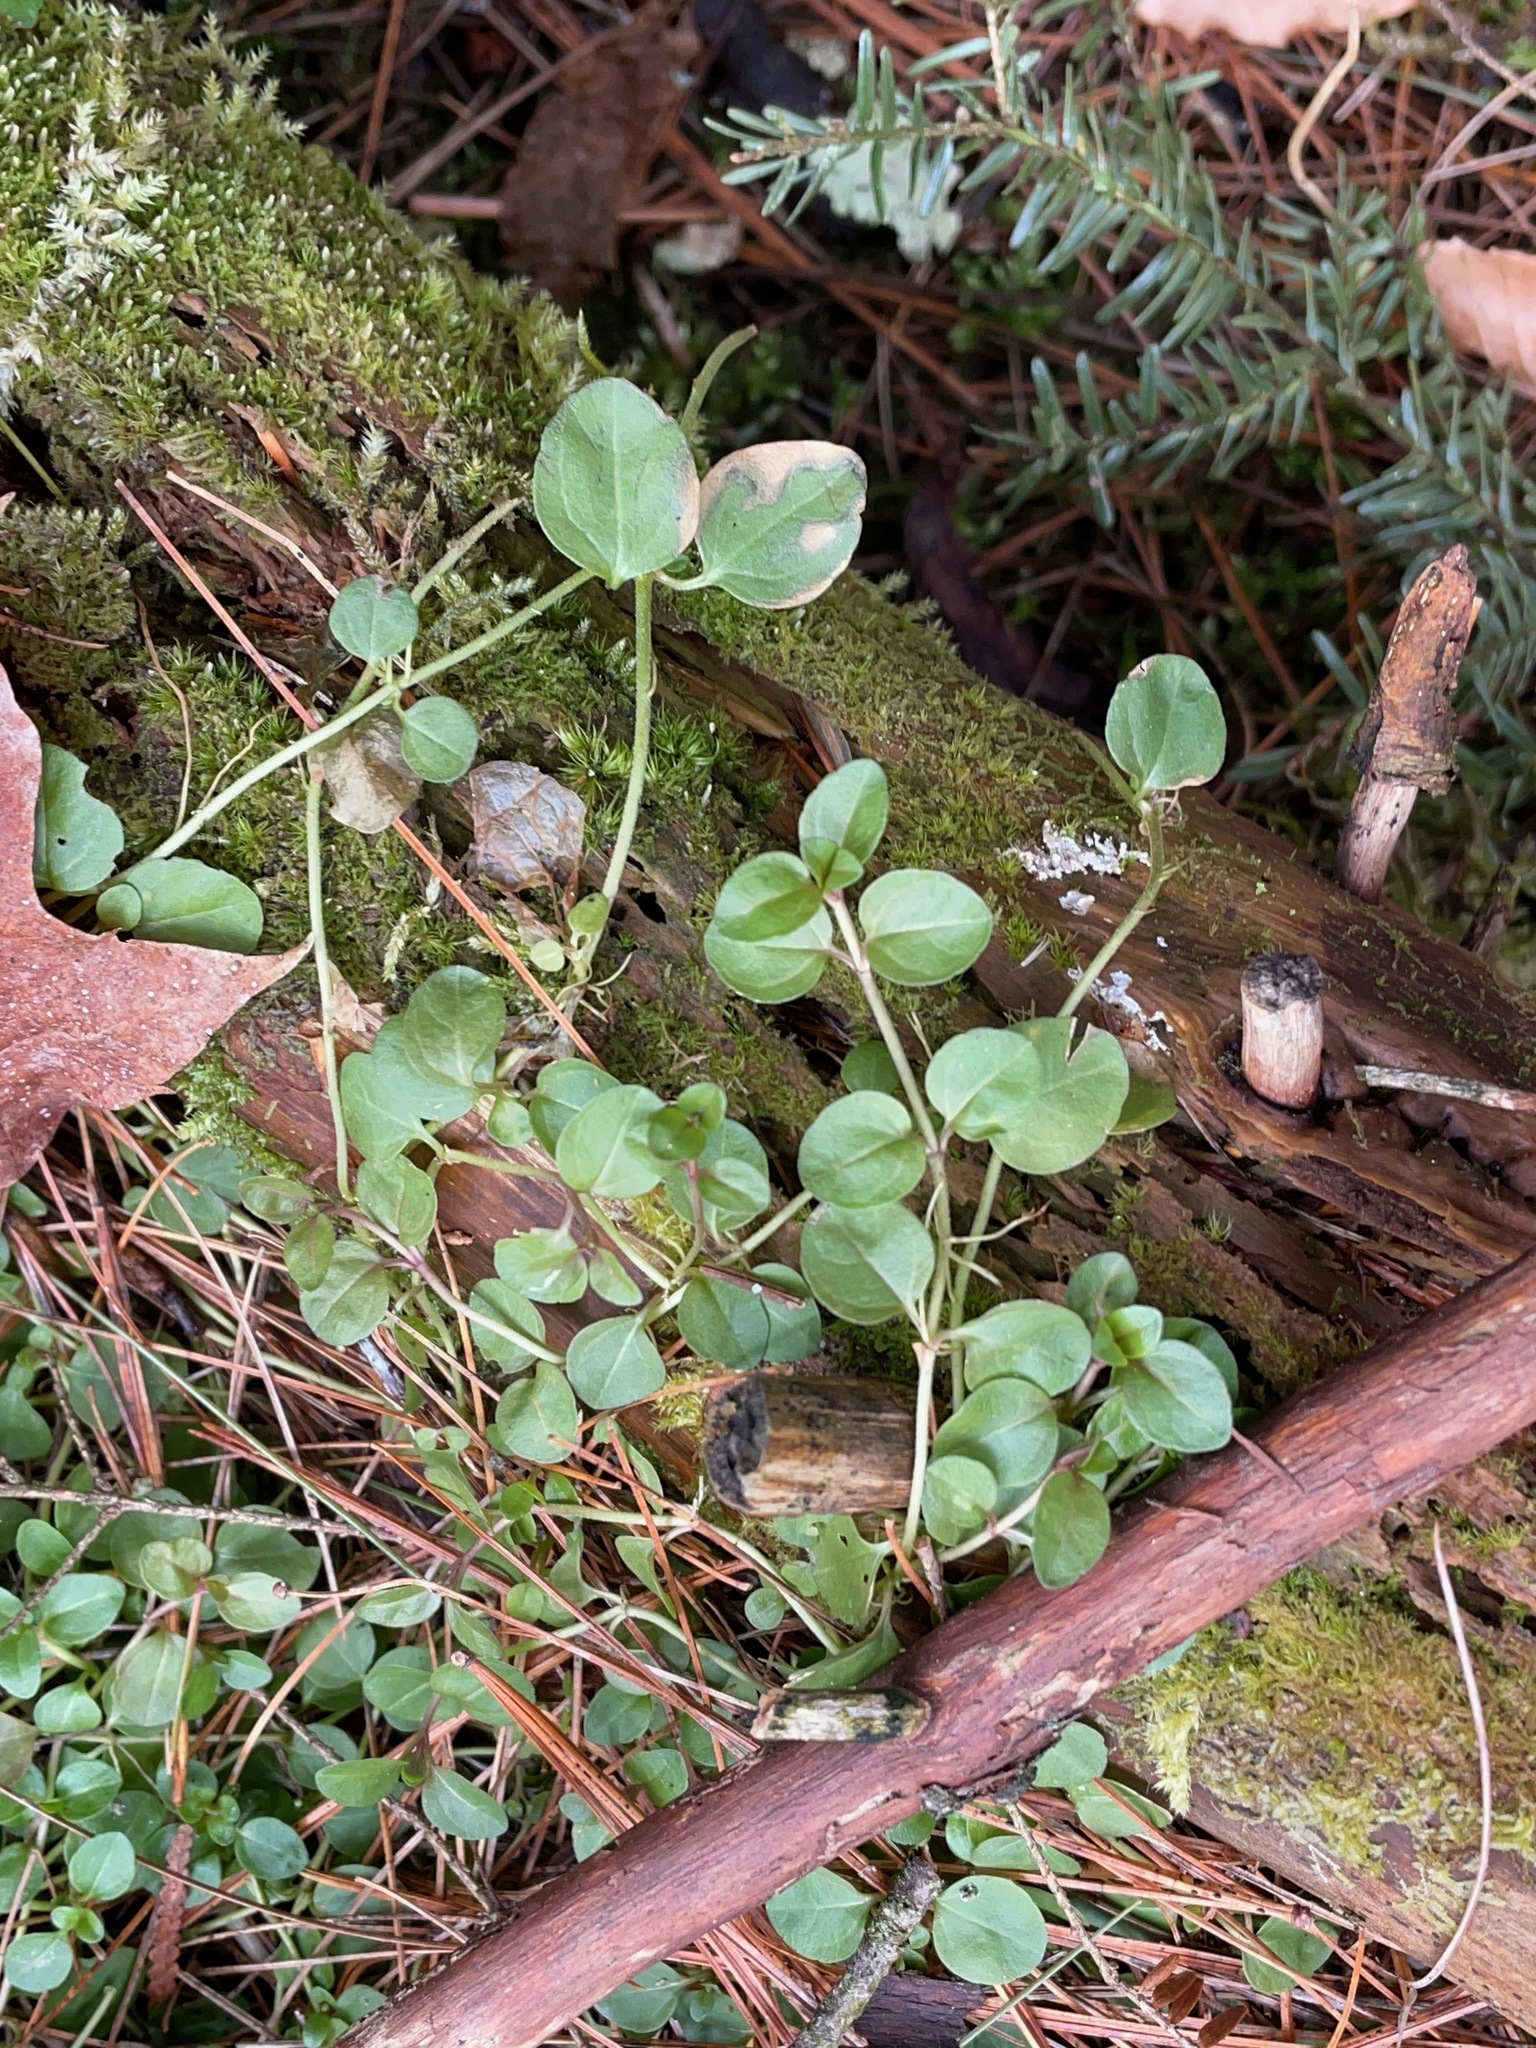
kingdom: Plantae
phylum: Tracheophyta
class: Magnoliopsida
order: Lamiales
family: Plantaginaceae
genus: Veronica
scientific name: Veronica serpyllifolia
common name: Thyme-leaved speedwell
